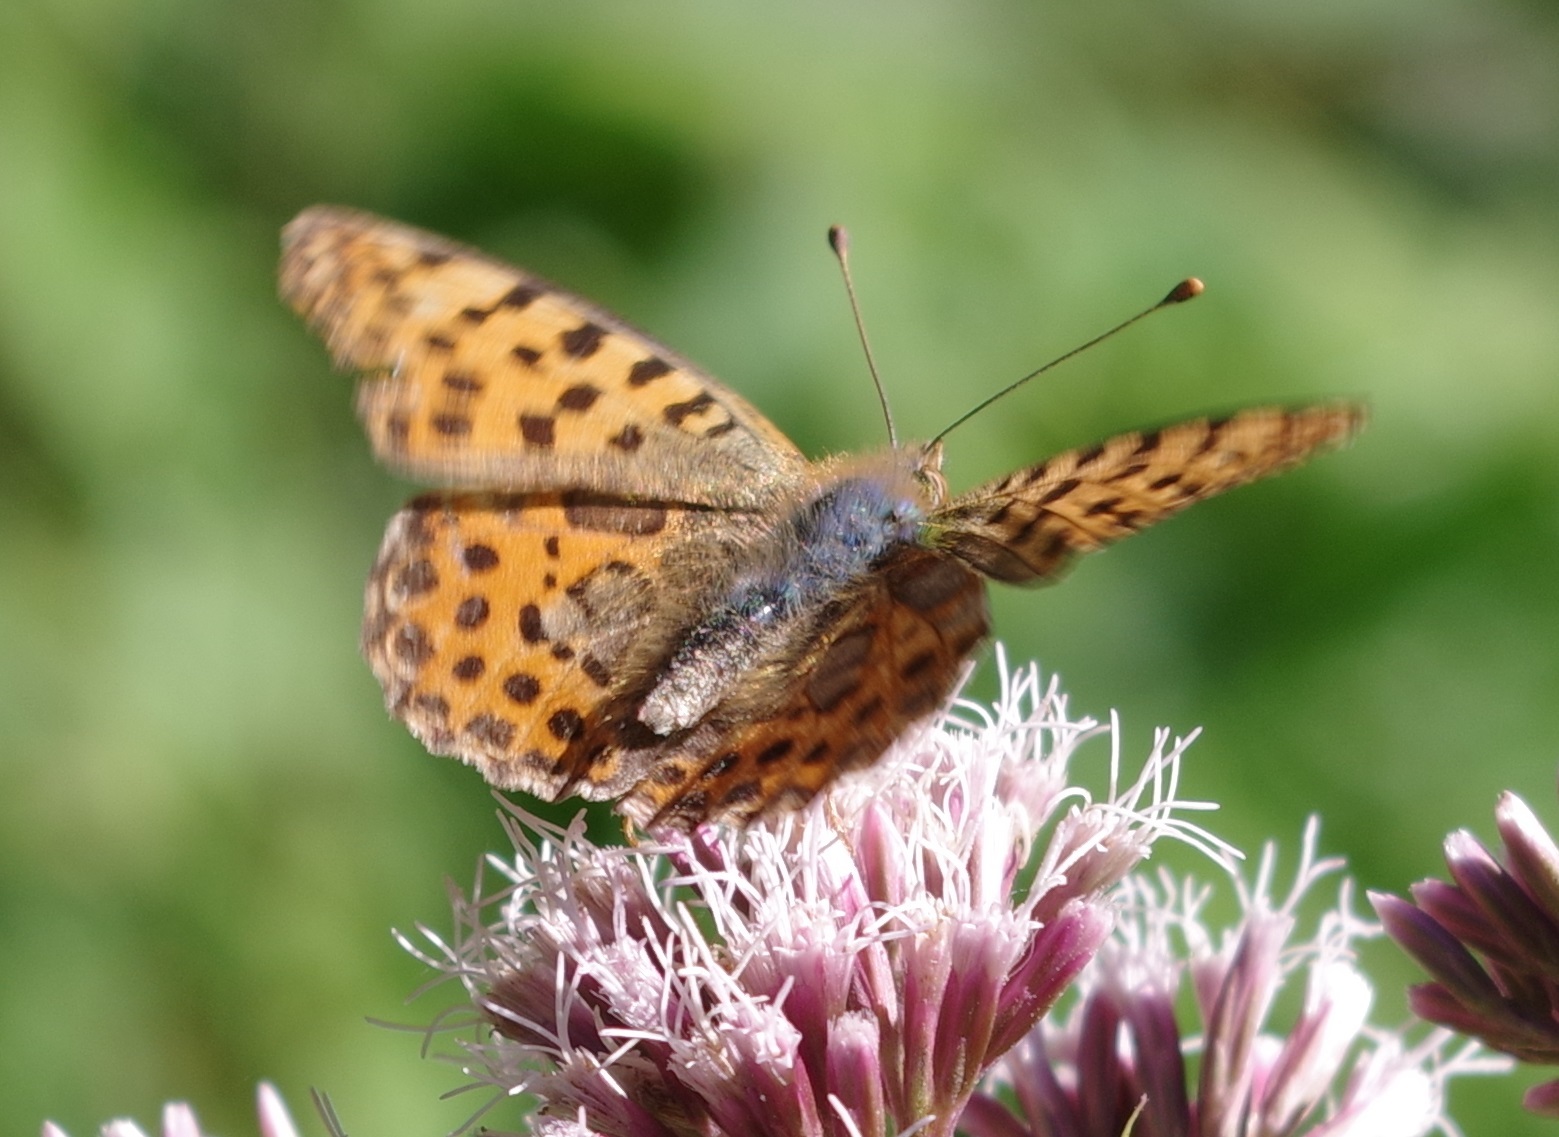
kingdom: Animalia
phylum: Arthropoda
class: Insecta
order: Lepidoptera
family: Nymphalidae
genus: Issoria
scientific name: Issoria lathonia
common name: Queen of spain fritillary
